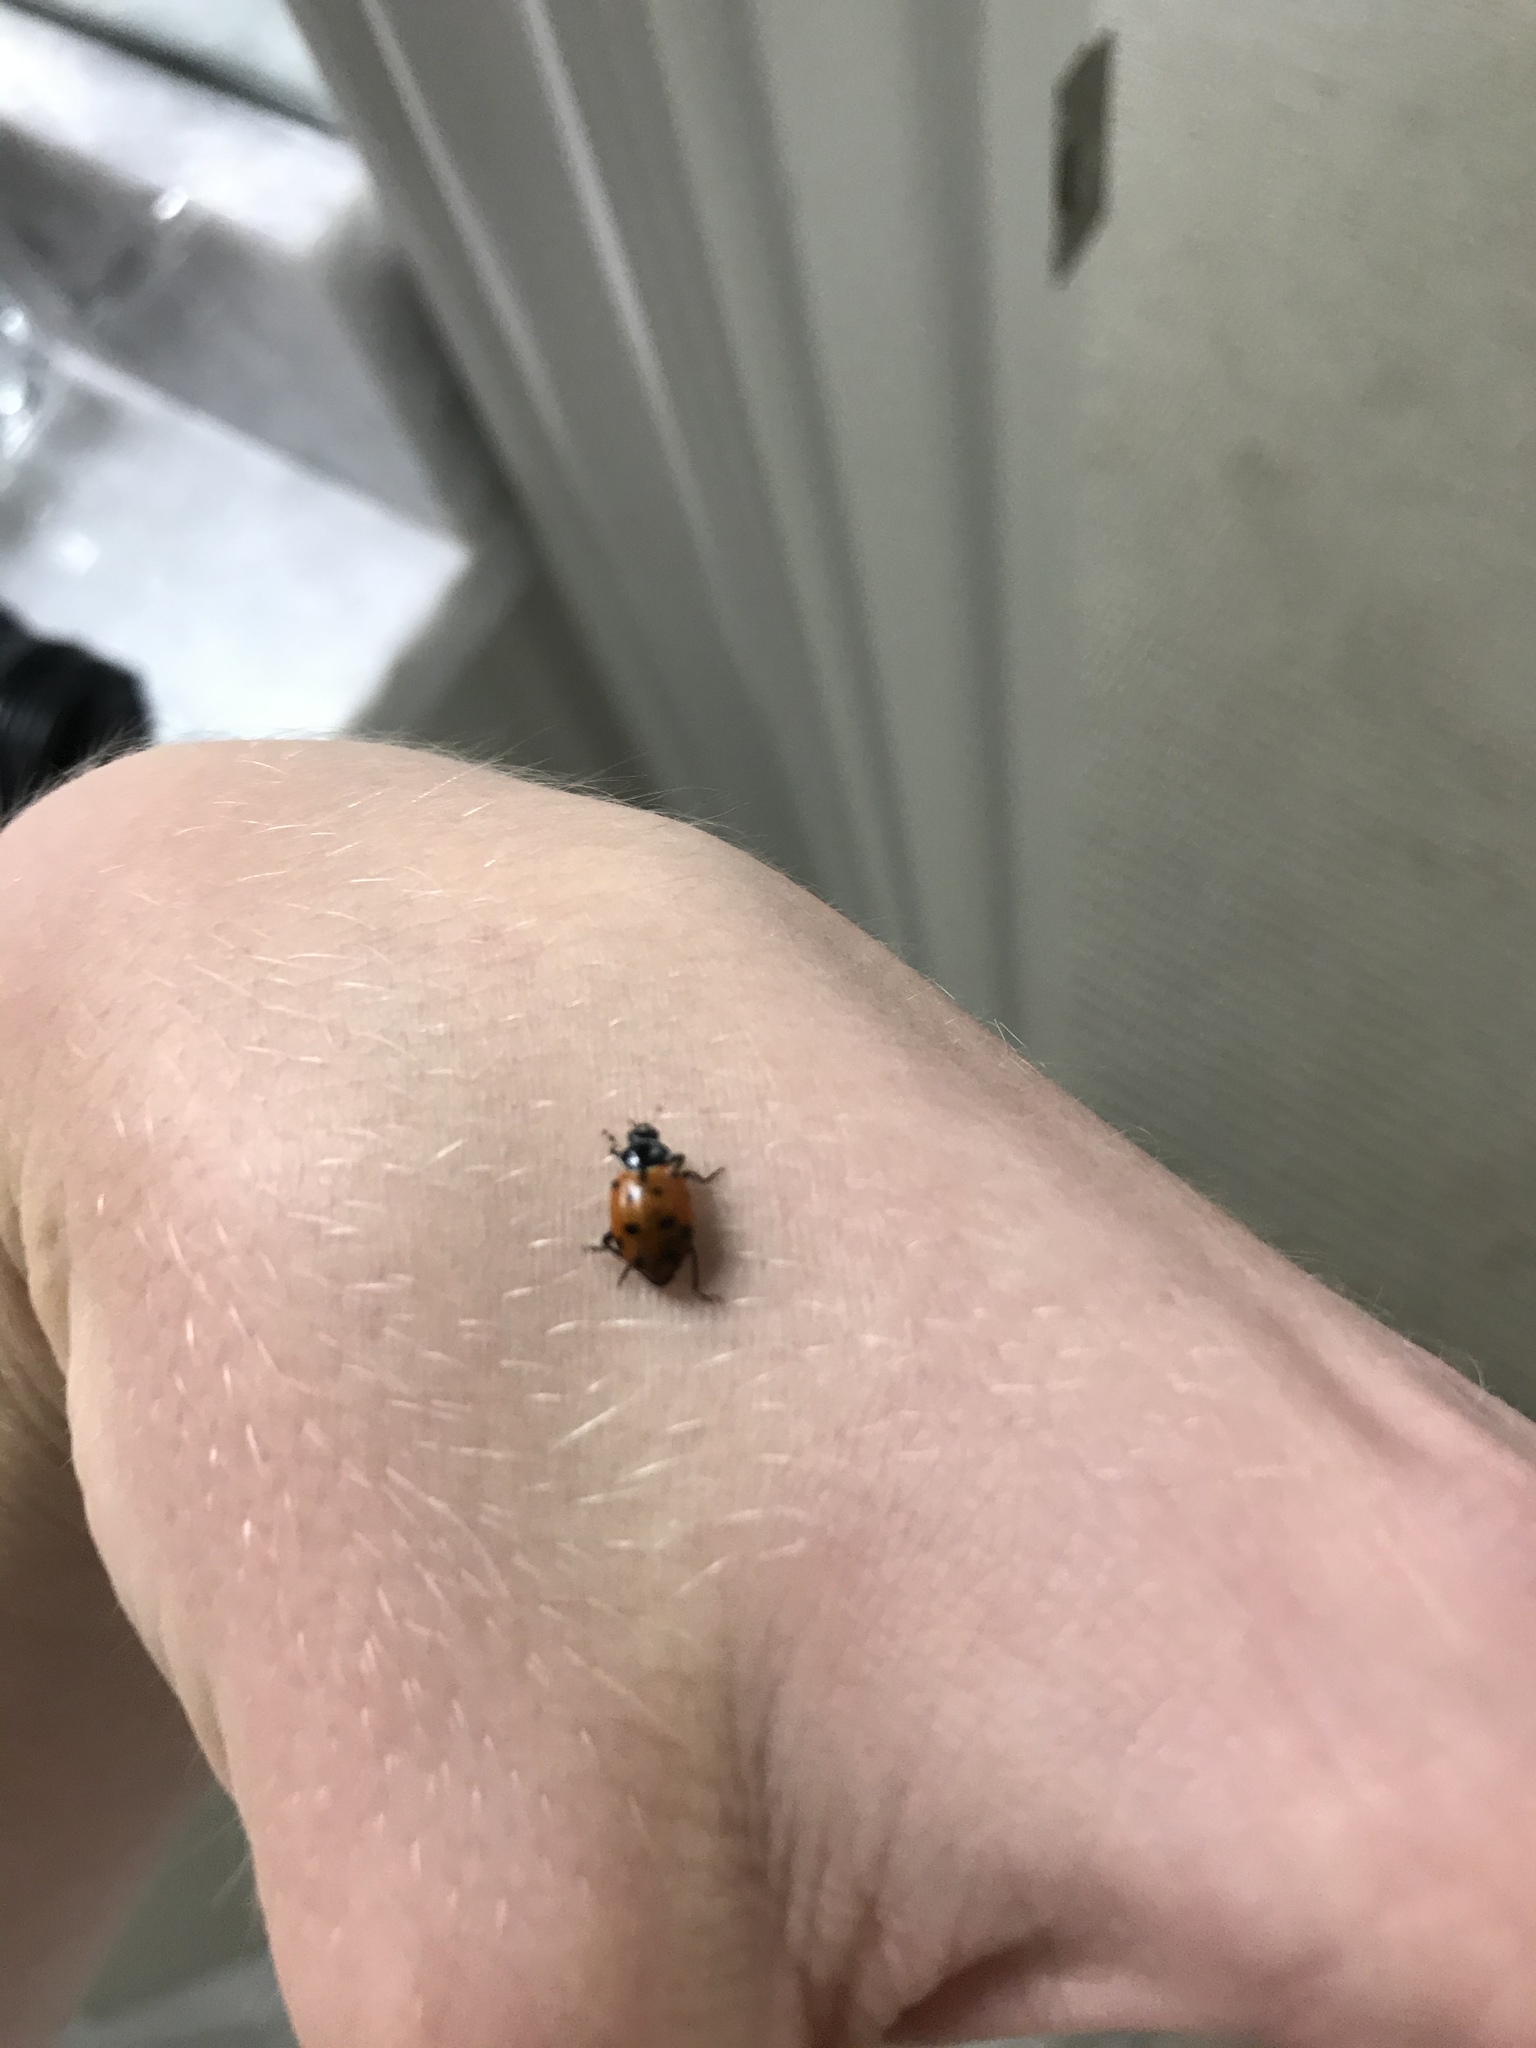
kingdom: Animalia
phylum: Arthropoda
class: Insecta
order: Coleoptera
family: Coccinellidae
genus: Hippodamia
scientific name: Hippodamia convergens
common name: Convergent lady beetle
